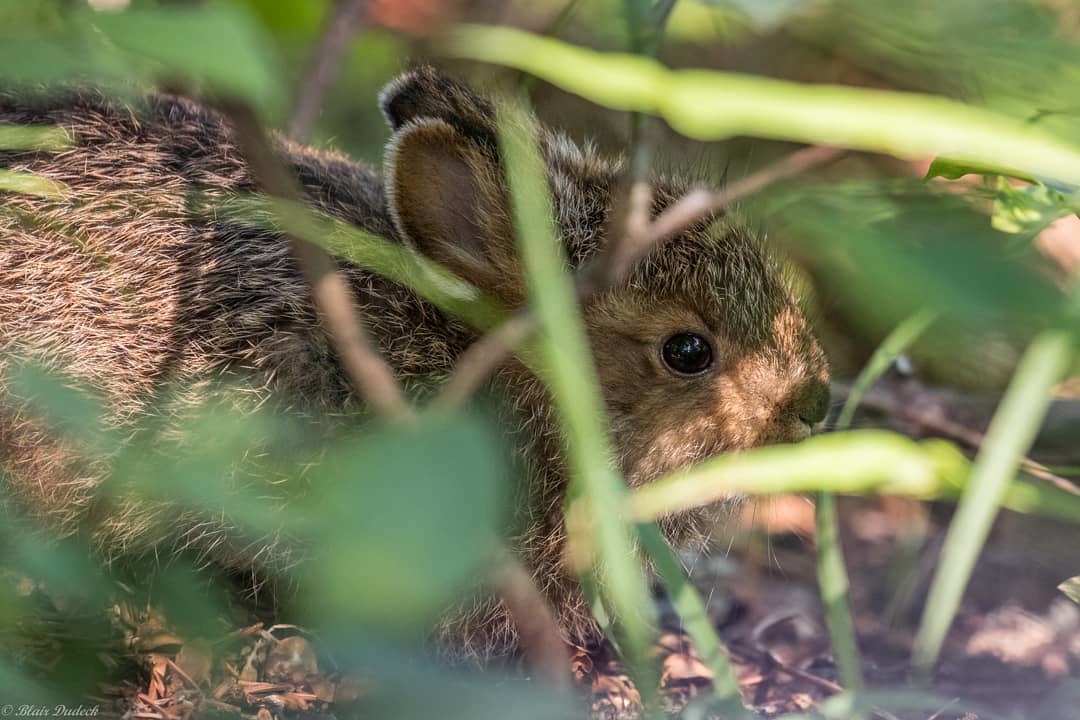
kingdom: Animalia
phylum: Chordata
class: Mammalia
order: Lagomorpha
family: Leporidae
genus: Lepus
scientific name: Lepus americanus
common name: Snowshoe hare
